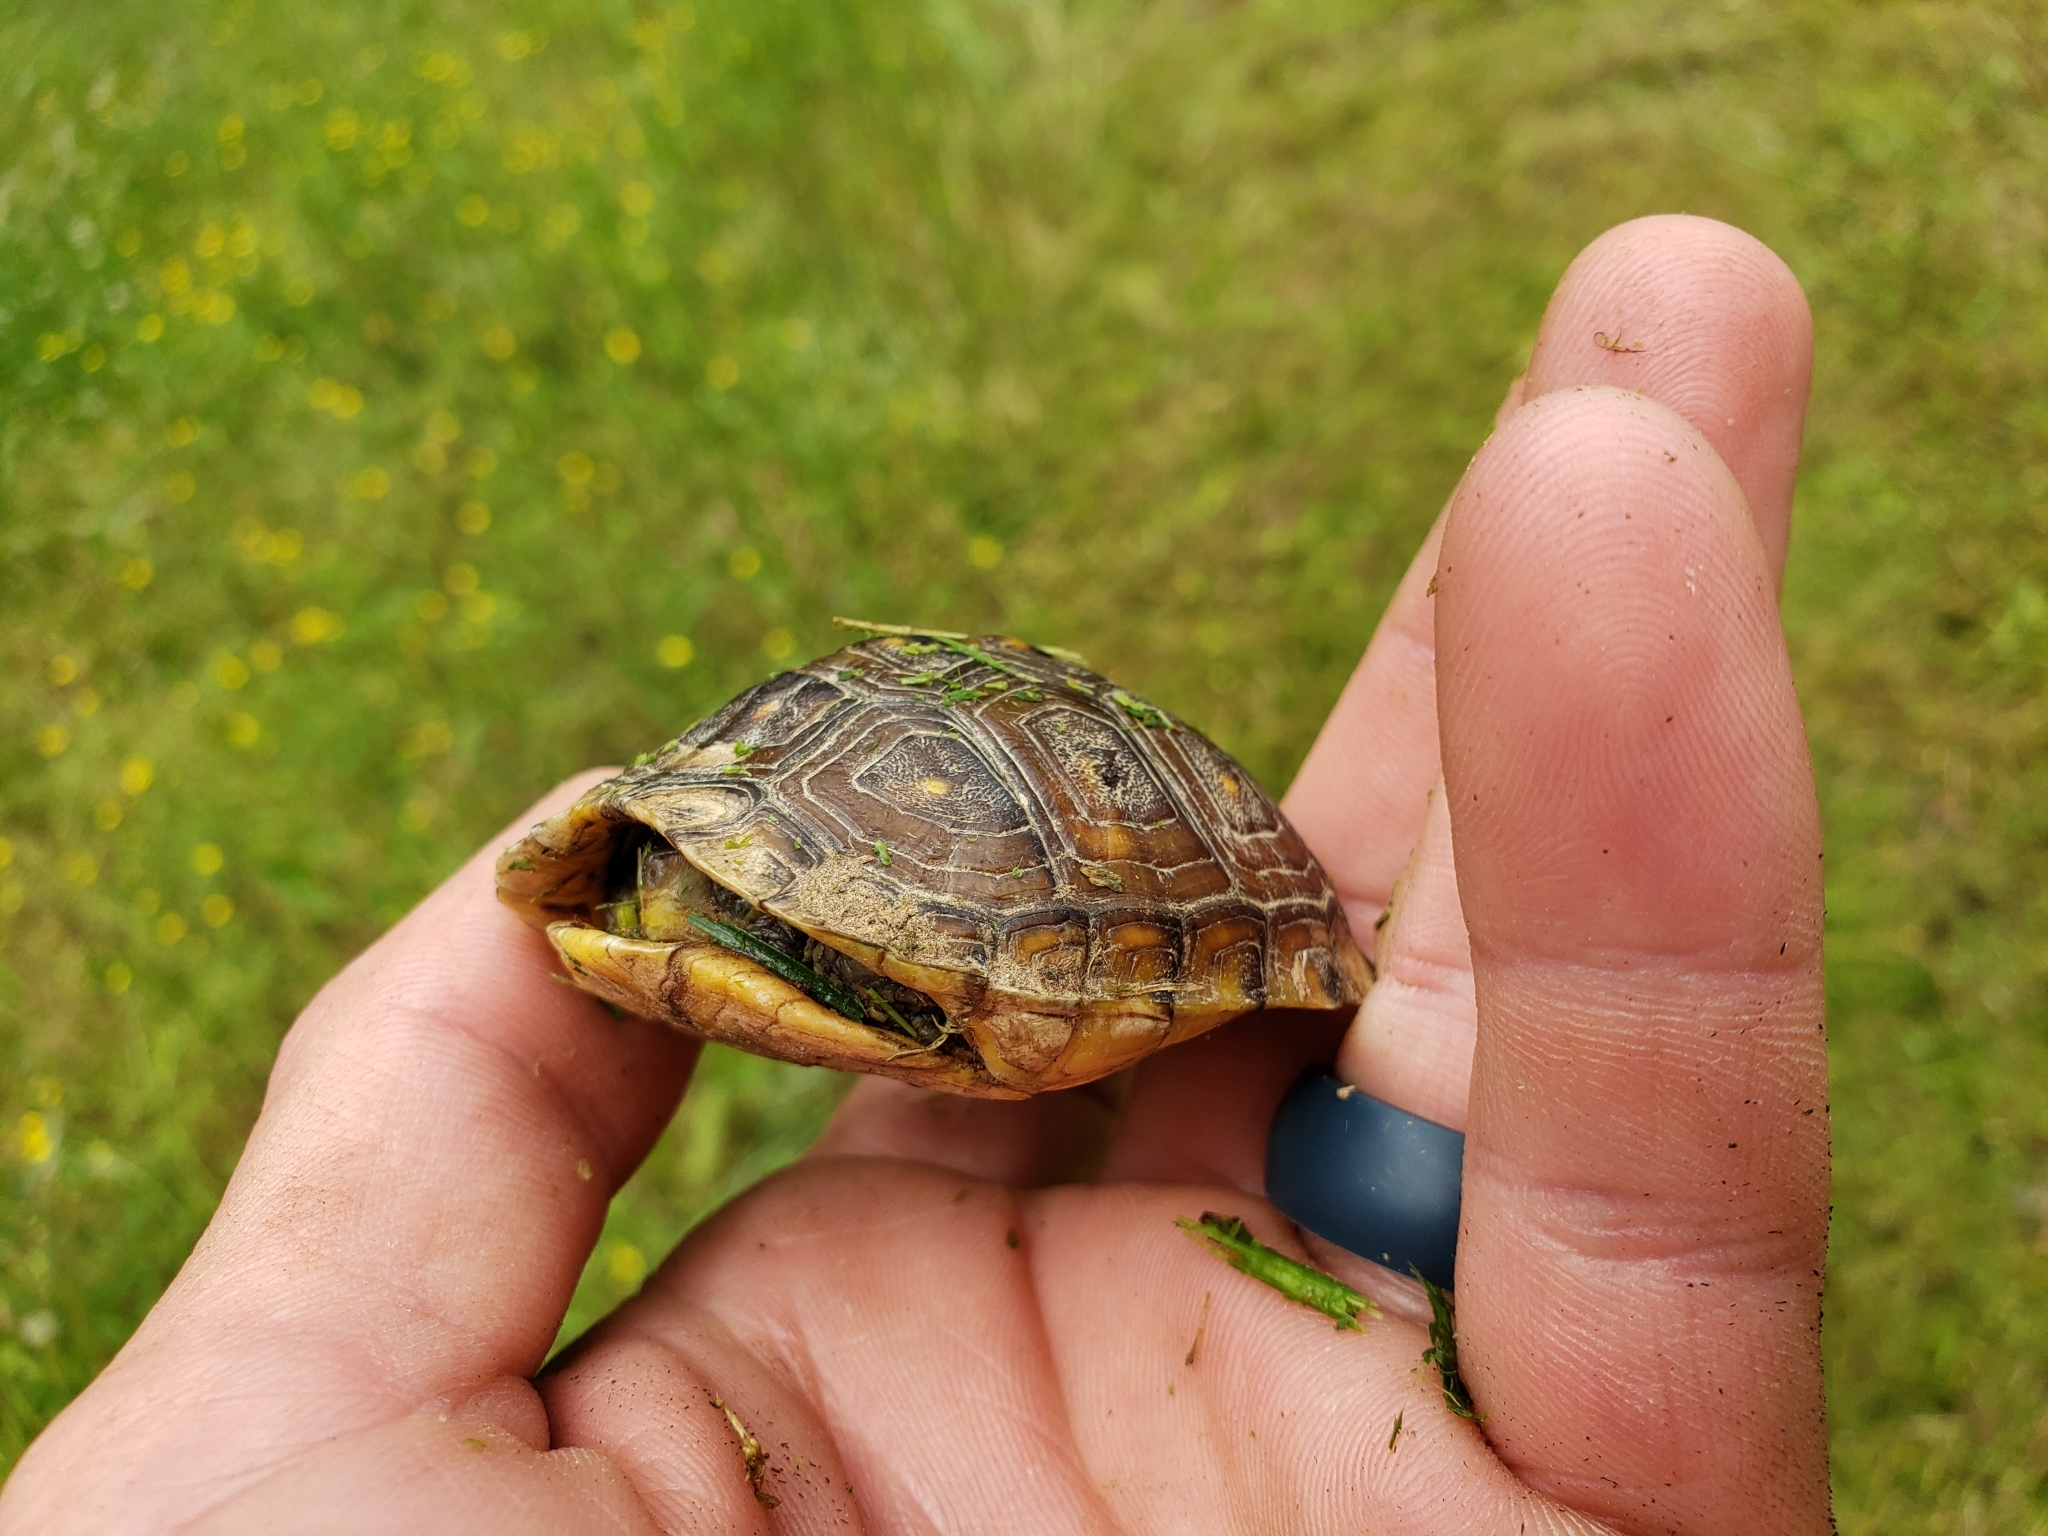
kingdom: Animalia
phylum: Chordata
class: Testudines
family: Emydidae
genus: Terrapene
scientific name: Terrapene carolina
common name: Common box turtle
